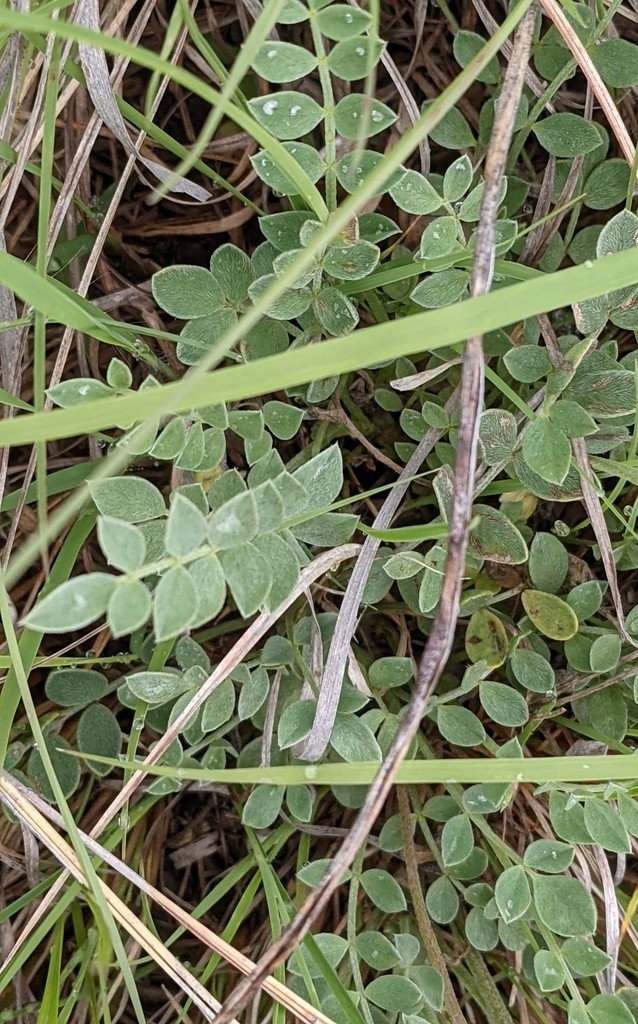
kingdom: Plantae
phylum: Tracheophyta
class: Magnoliopsida
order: Fabales
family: Fabaceae
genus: Astragalus
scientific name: Astragalus missouriensis
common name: Missouri milk-vetch
